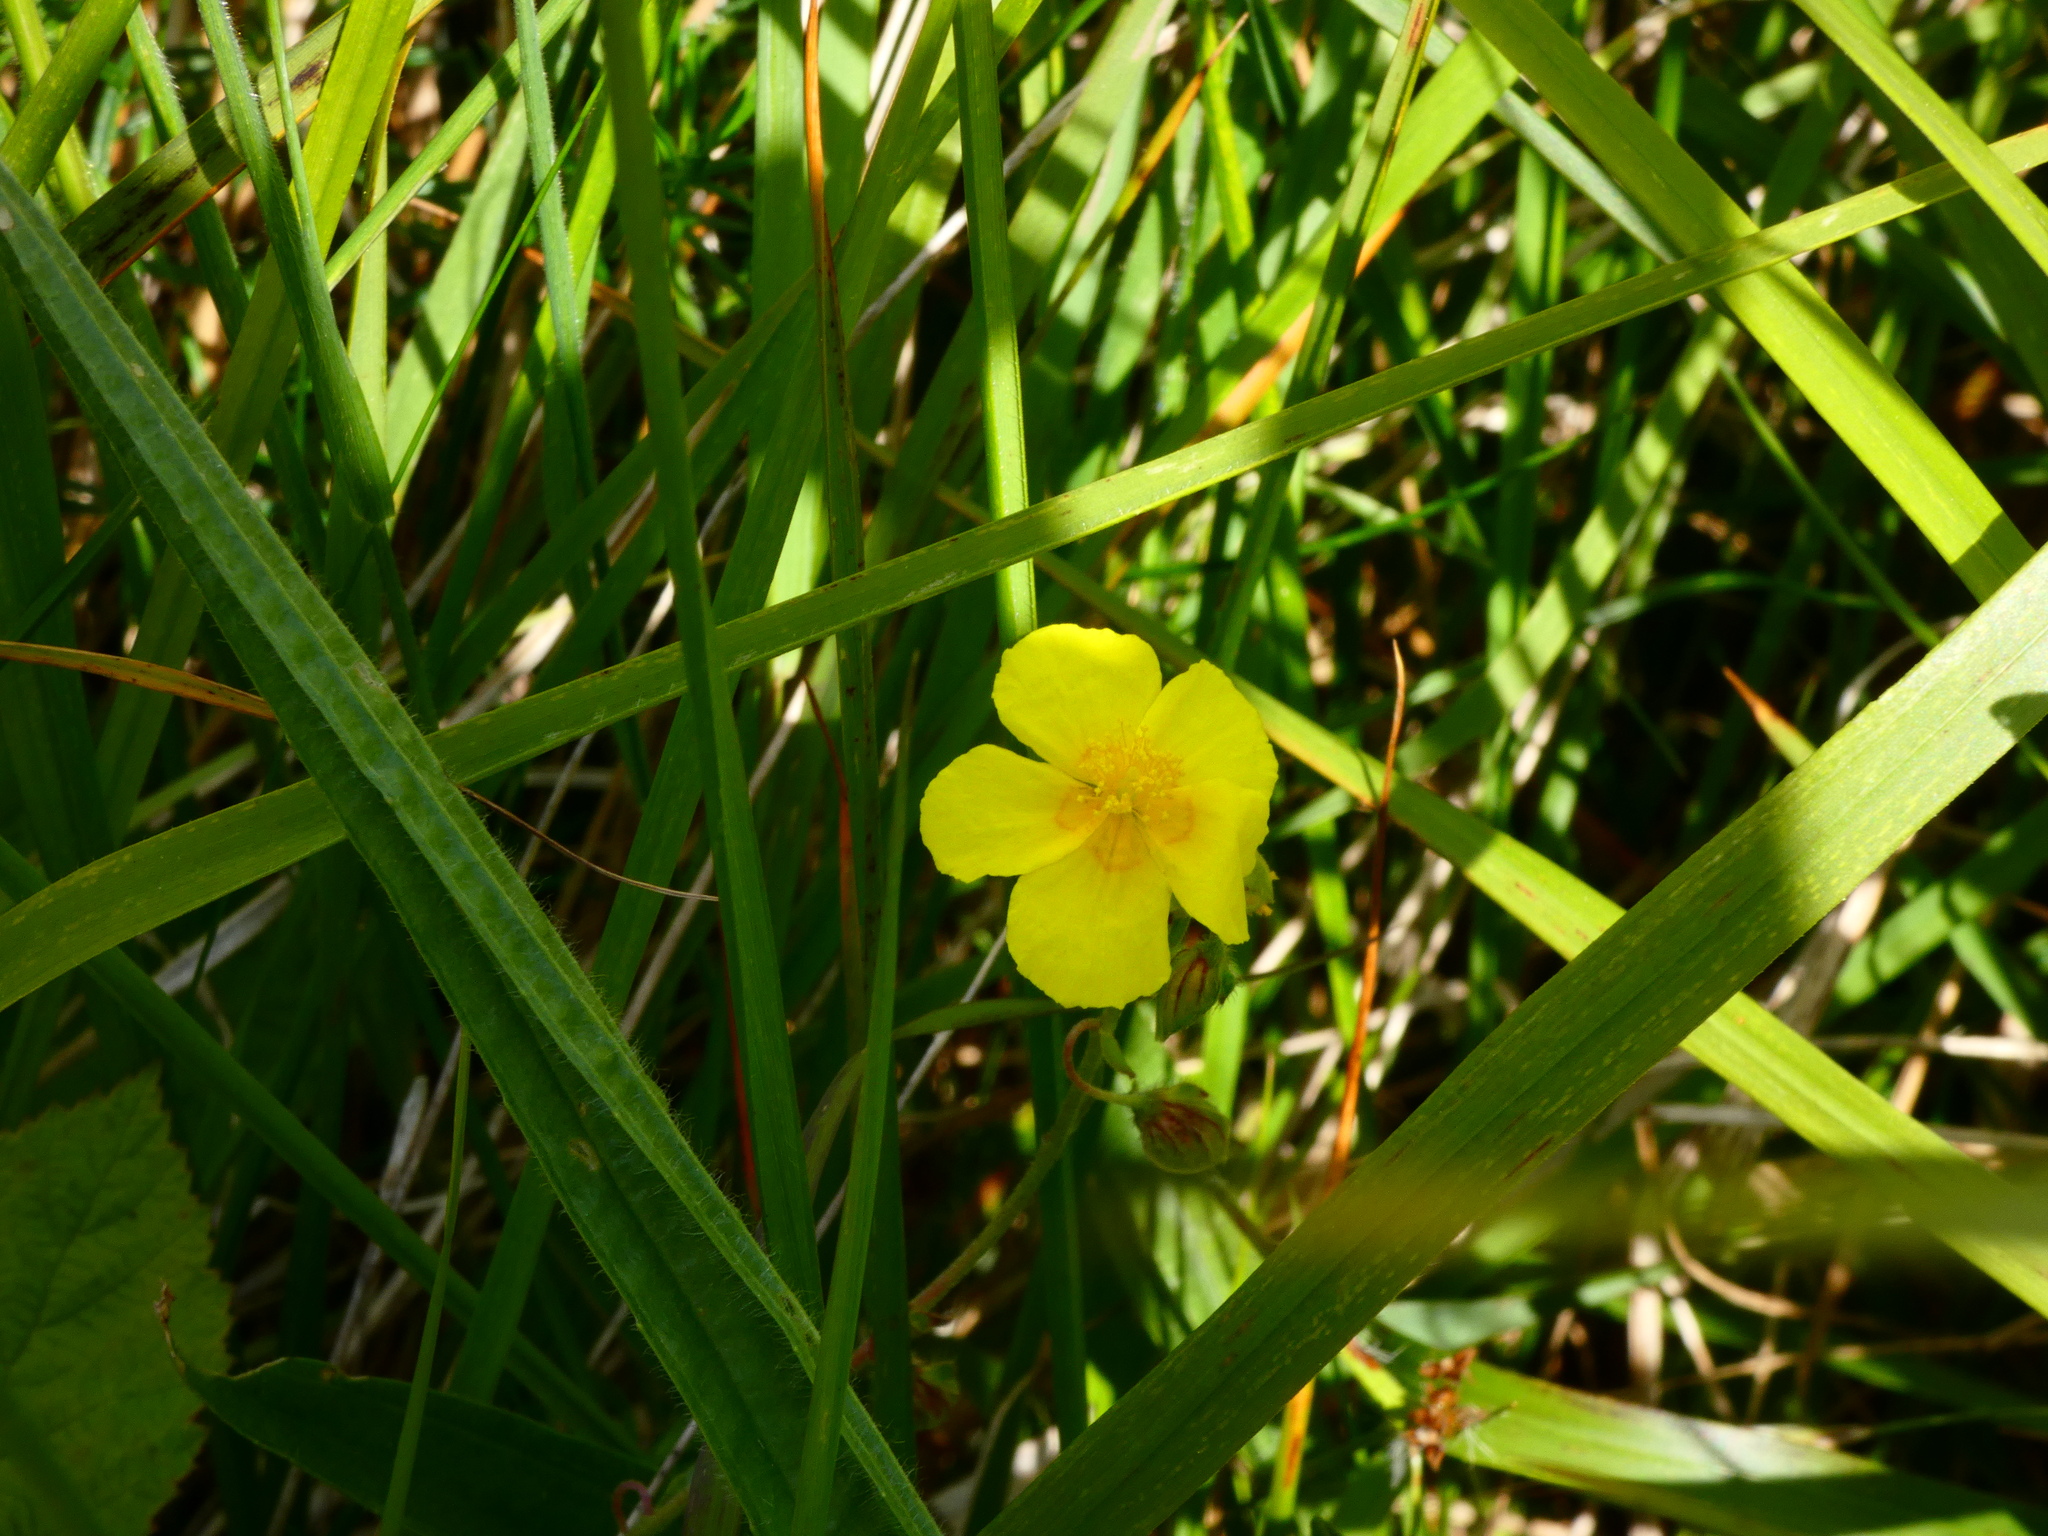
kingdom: Plantae
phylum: Tracheophyta
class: Magnoliopsida
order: Malvales
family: Cistaceae
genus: Helianthemum
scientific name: Helianthemum nummularium
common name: Common rock-rose
